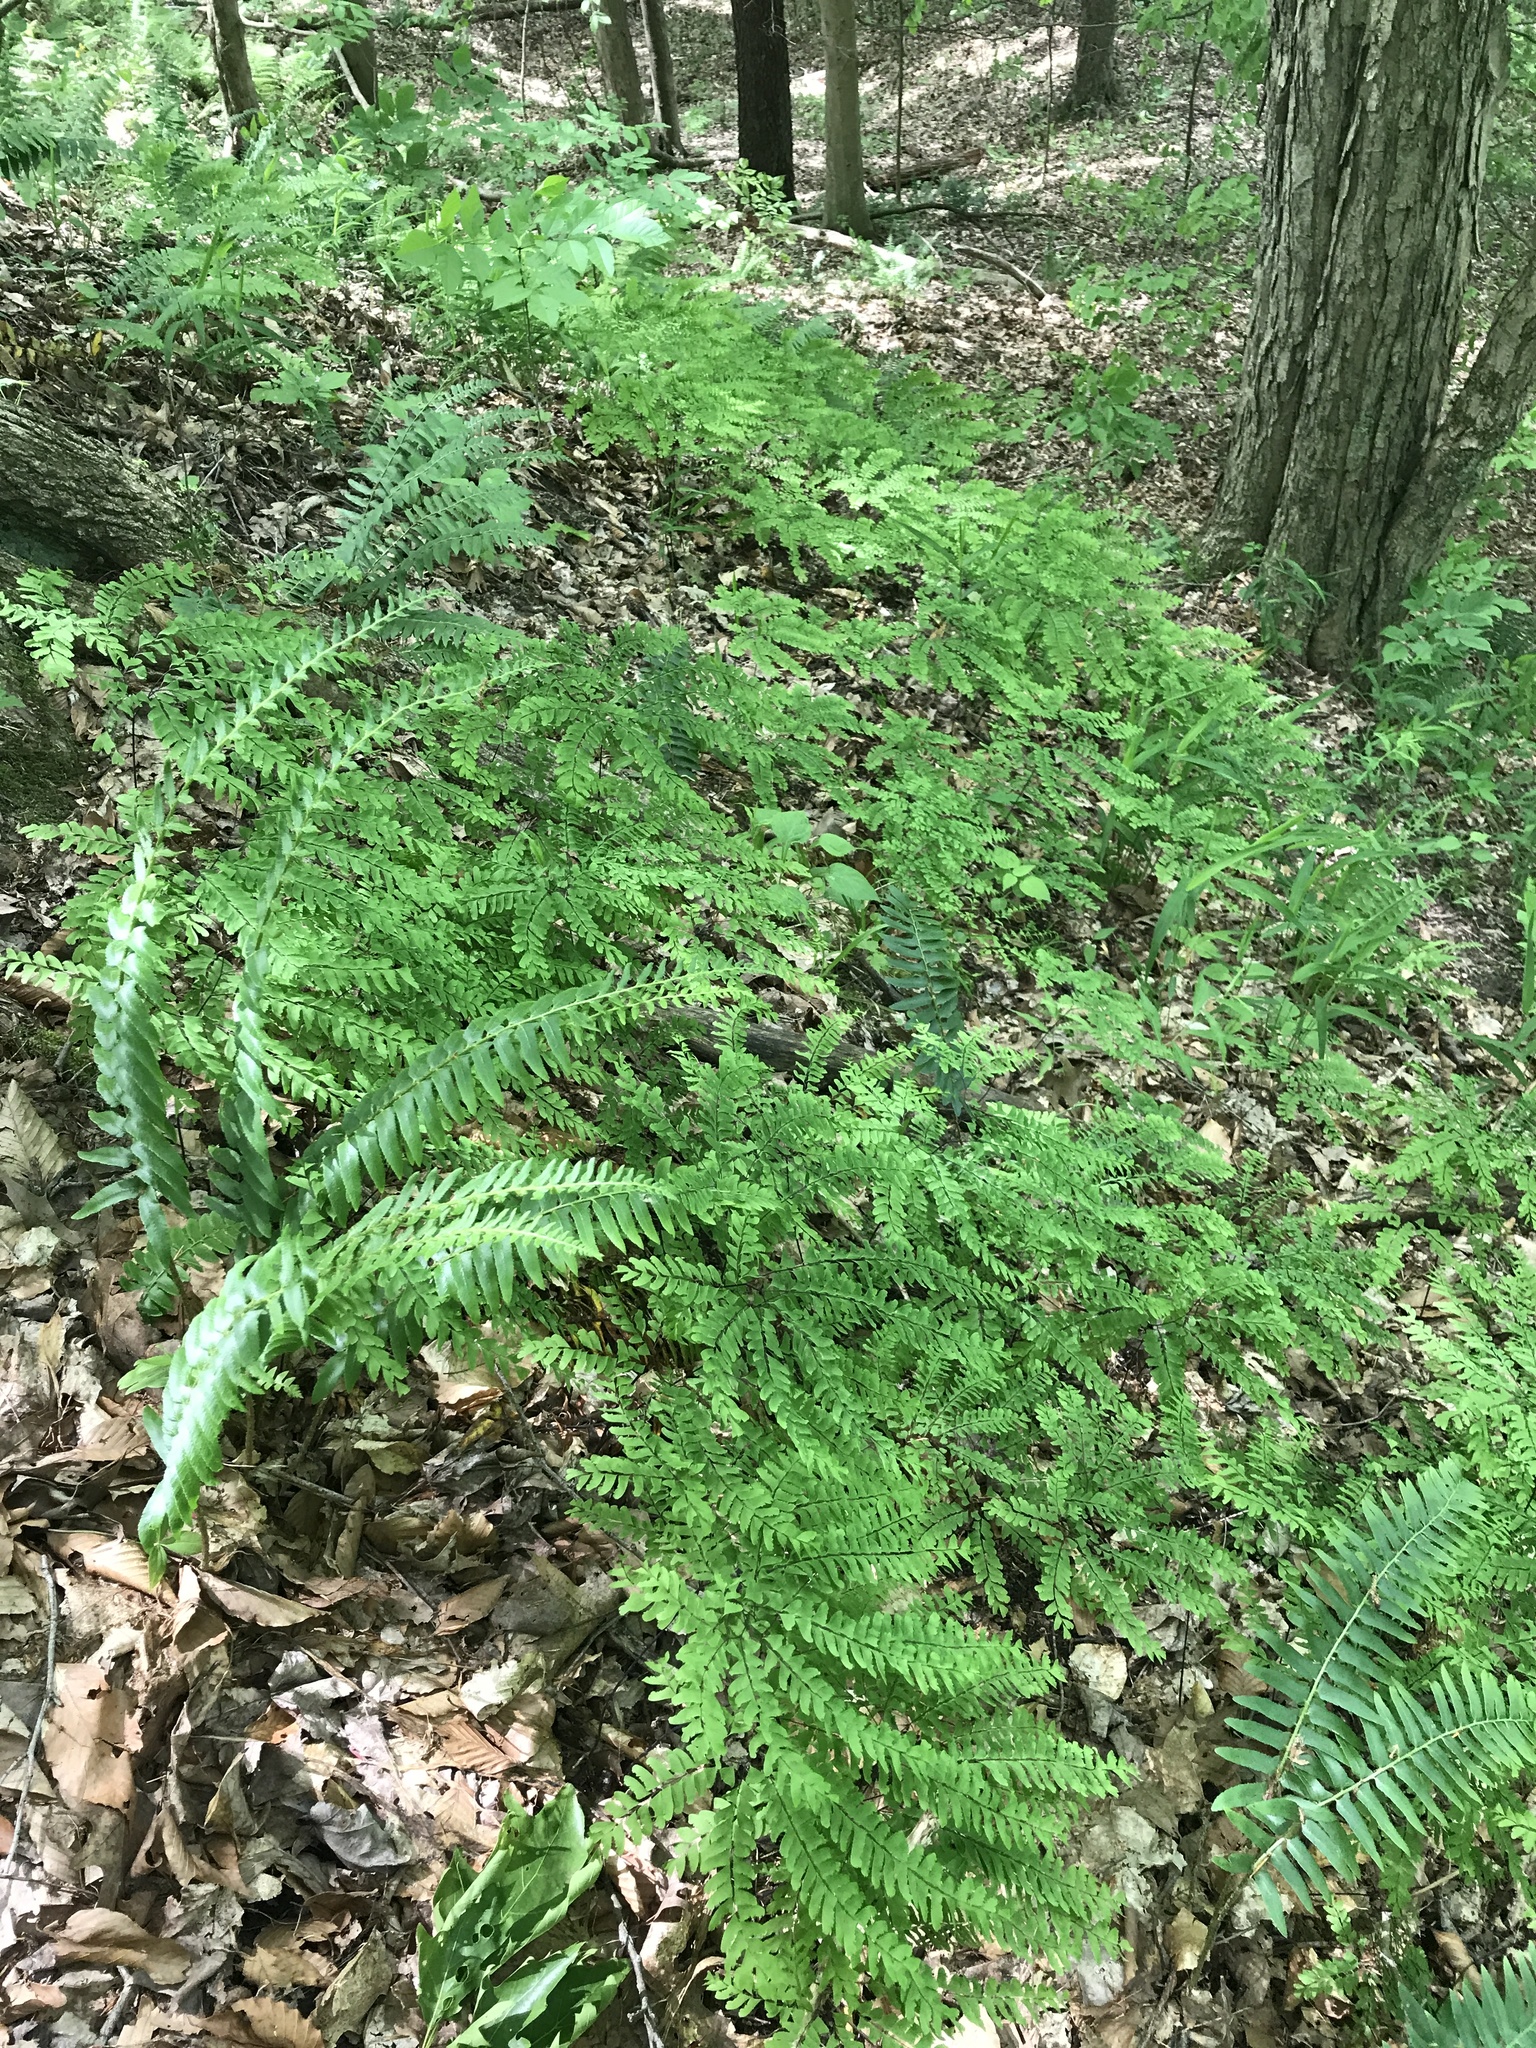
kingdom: Plantae
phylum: Tracheophyta
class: Polypodiopsida
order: Polypodiales
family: Pteridaceae
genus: Adiantum
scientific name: Adiantum pedatum
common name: Five-finger fern
